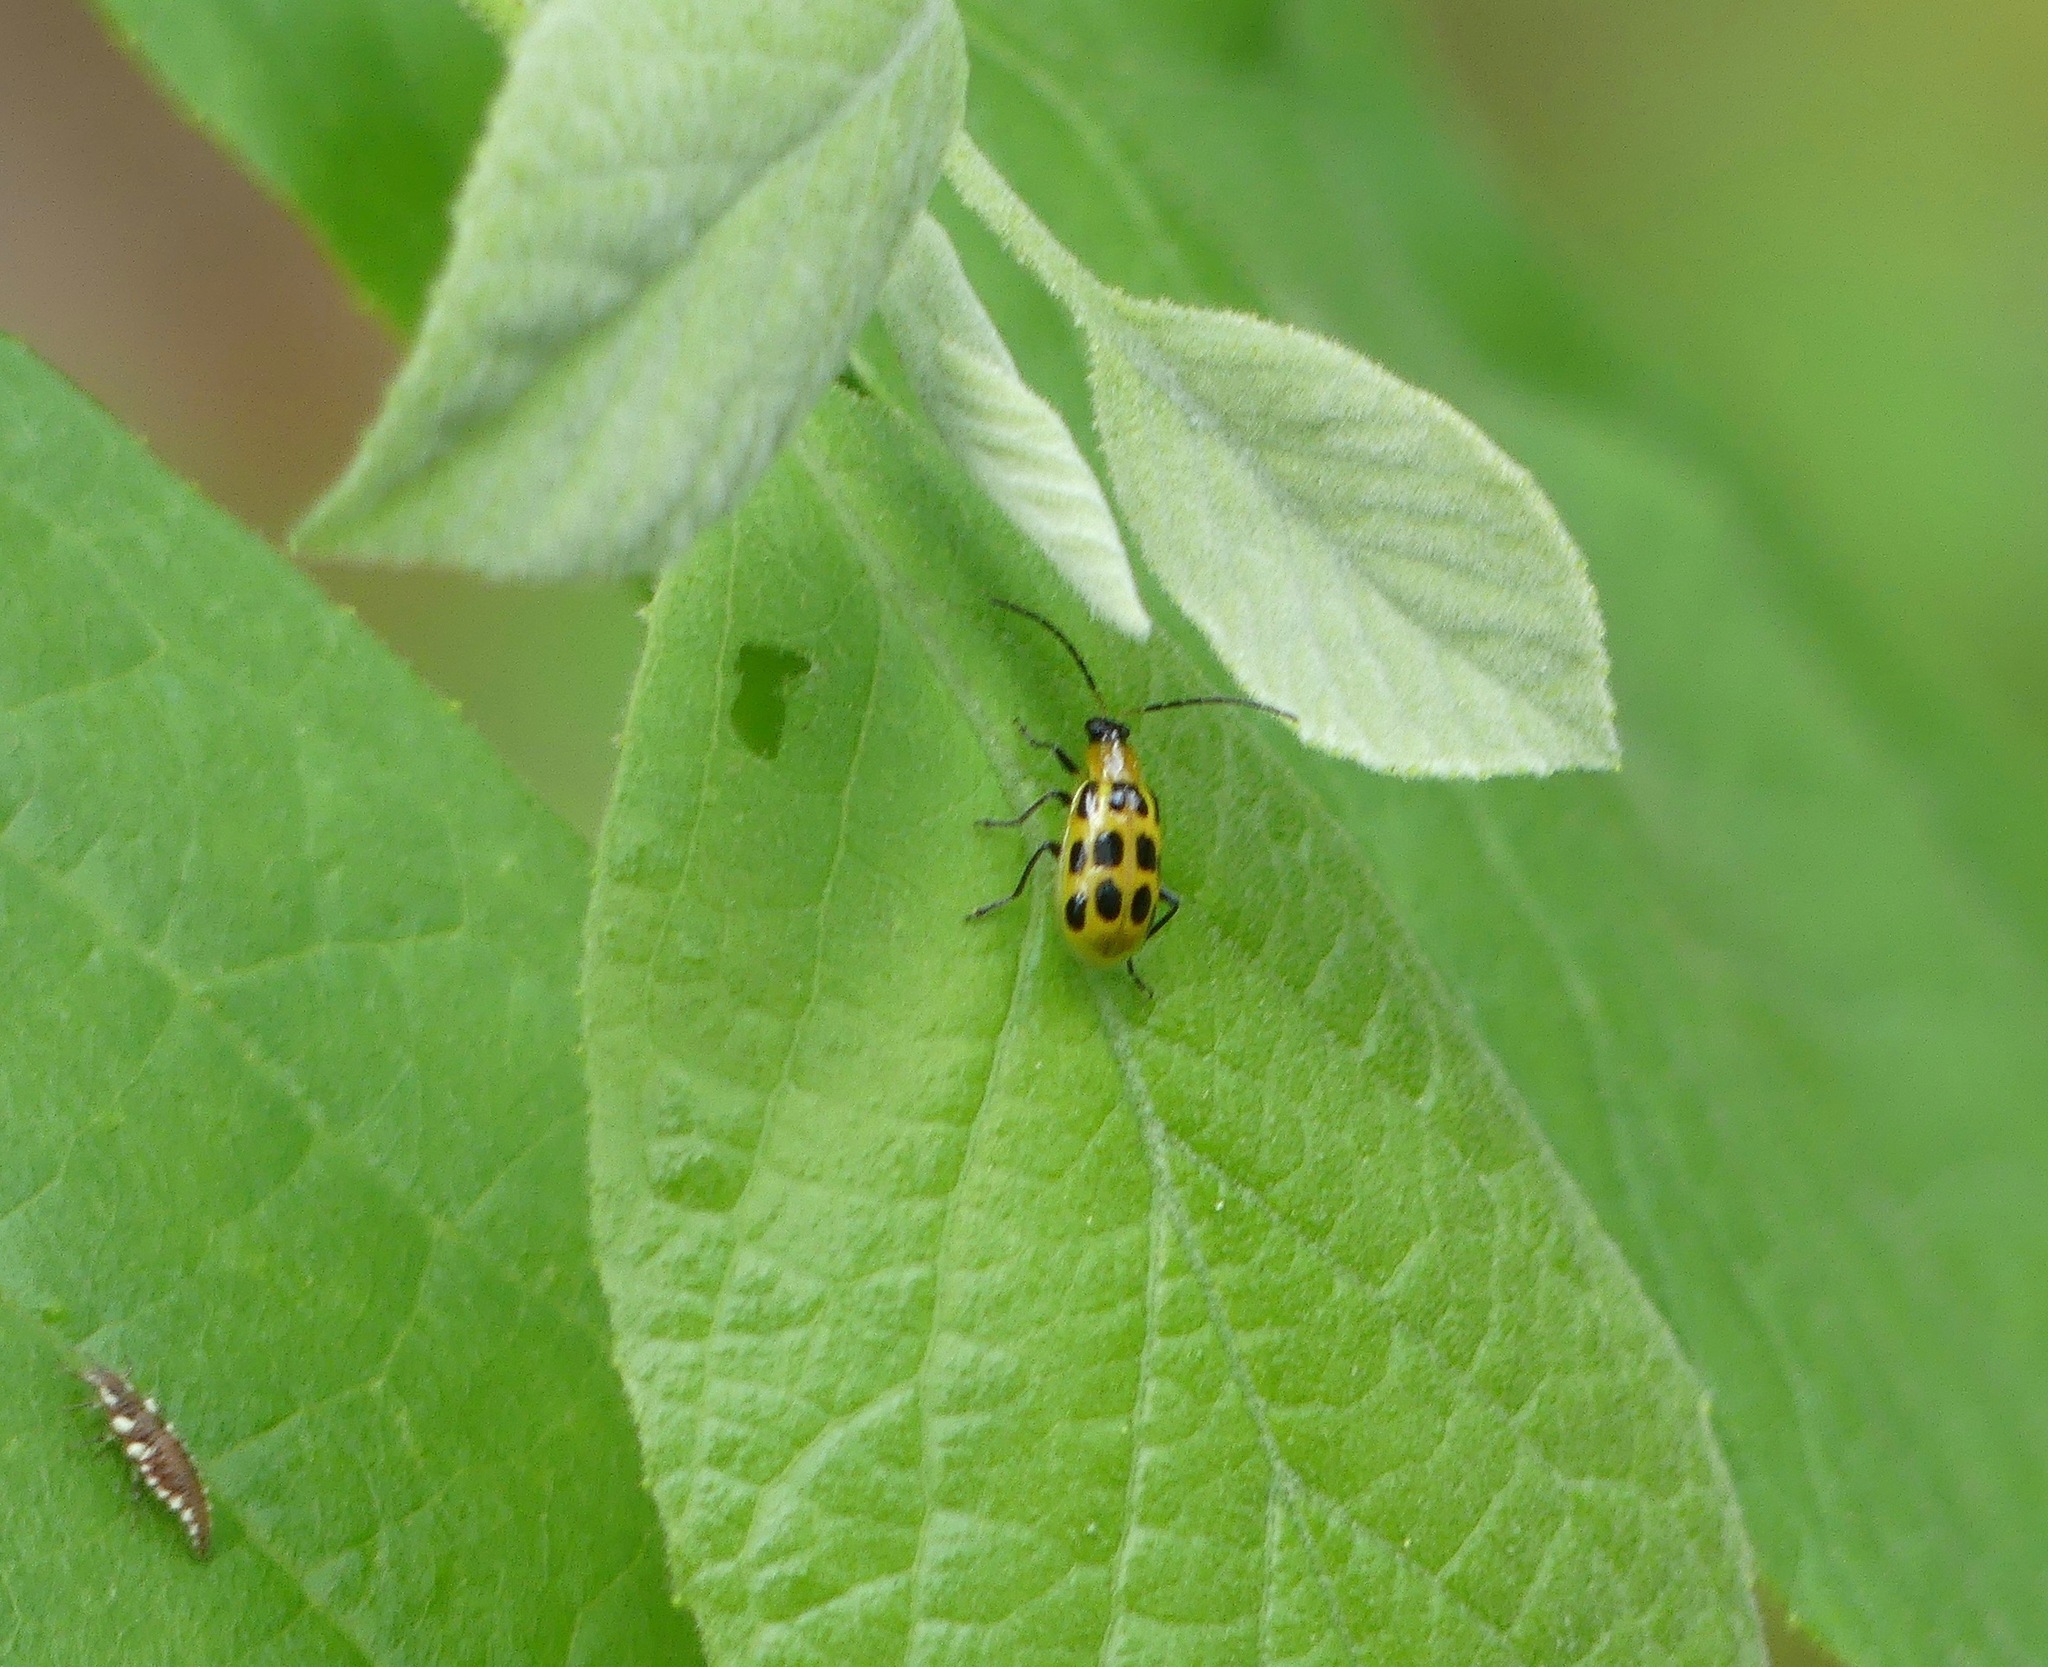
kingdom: Animalia
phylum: Arthropoda
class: Insecta
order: Coleoptera
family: Chrysomelidae
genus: Diabrotica
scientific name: Diabrotica undecimpunctata
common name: Spotted cucumber beetle
